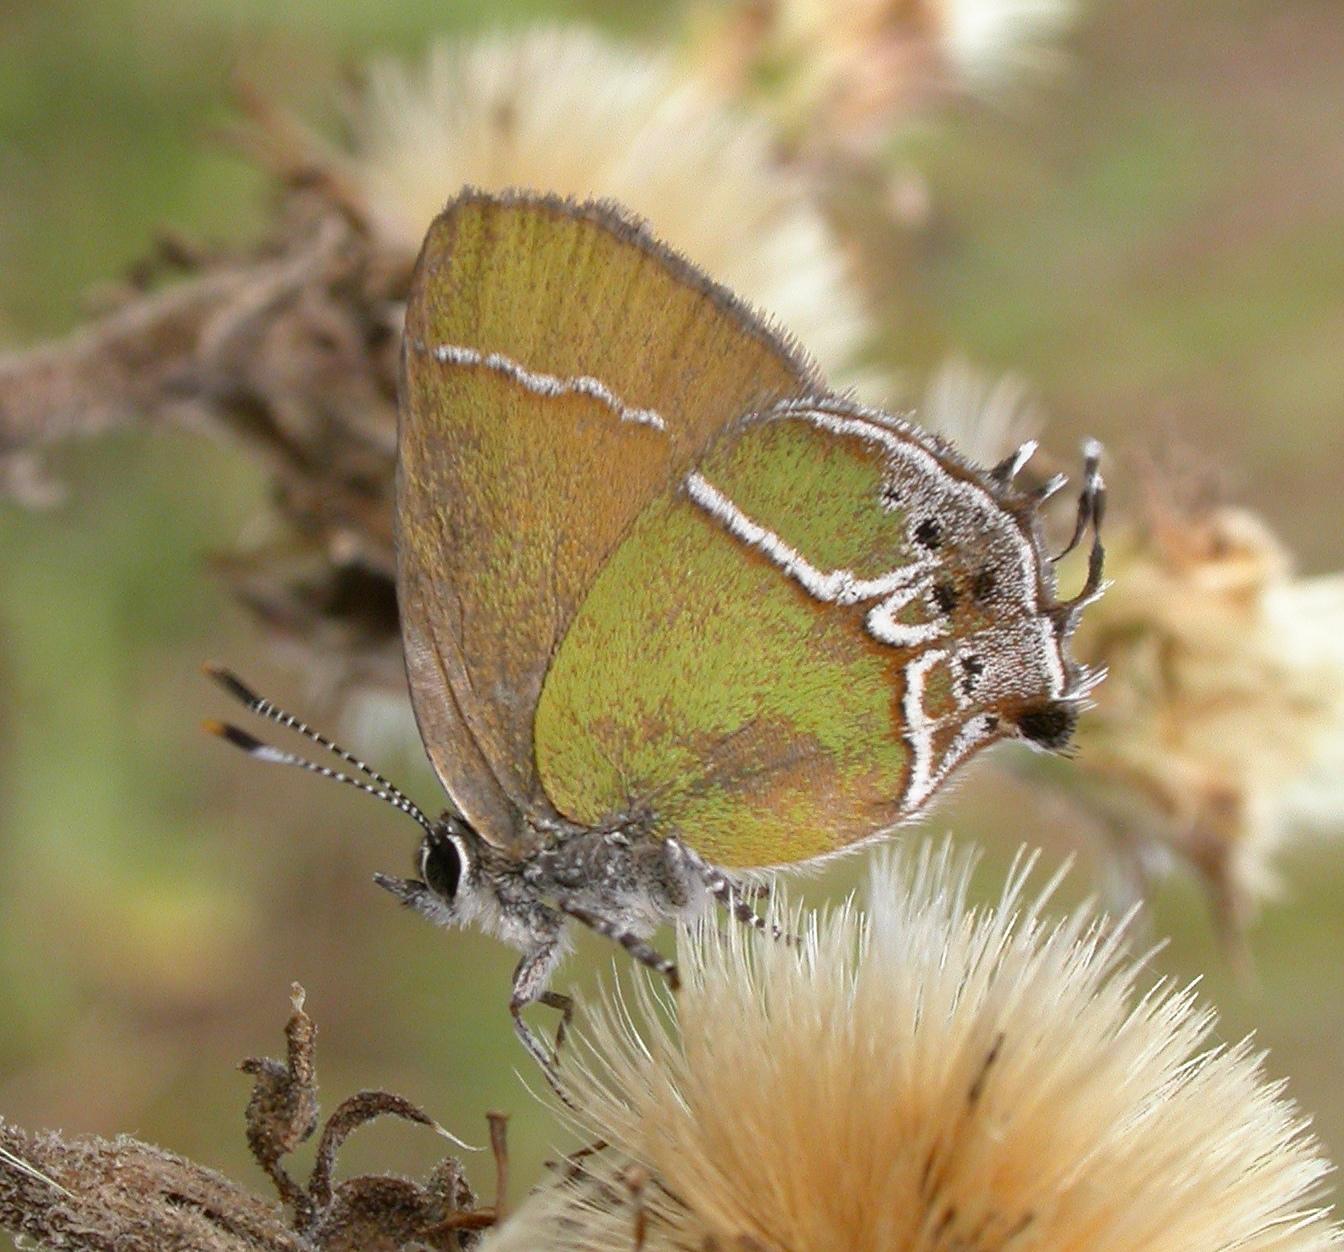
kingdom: Animalia
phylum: Arthropoda
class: Insecta
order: Lepidoptera
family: Lycaenidae
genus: Xamia
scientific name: Xamia xami
